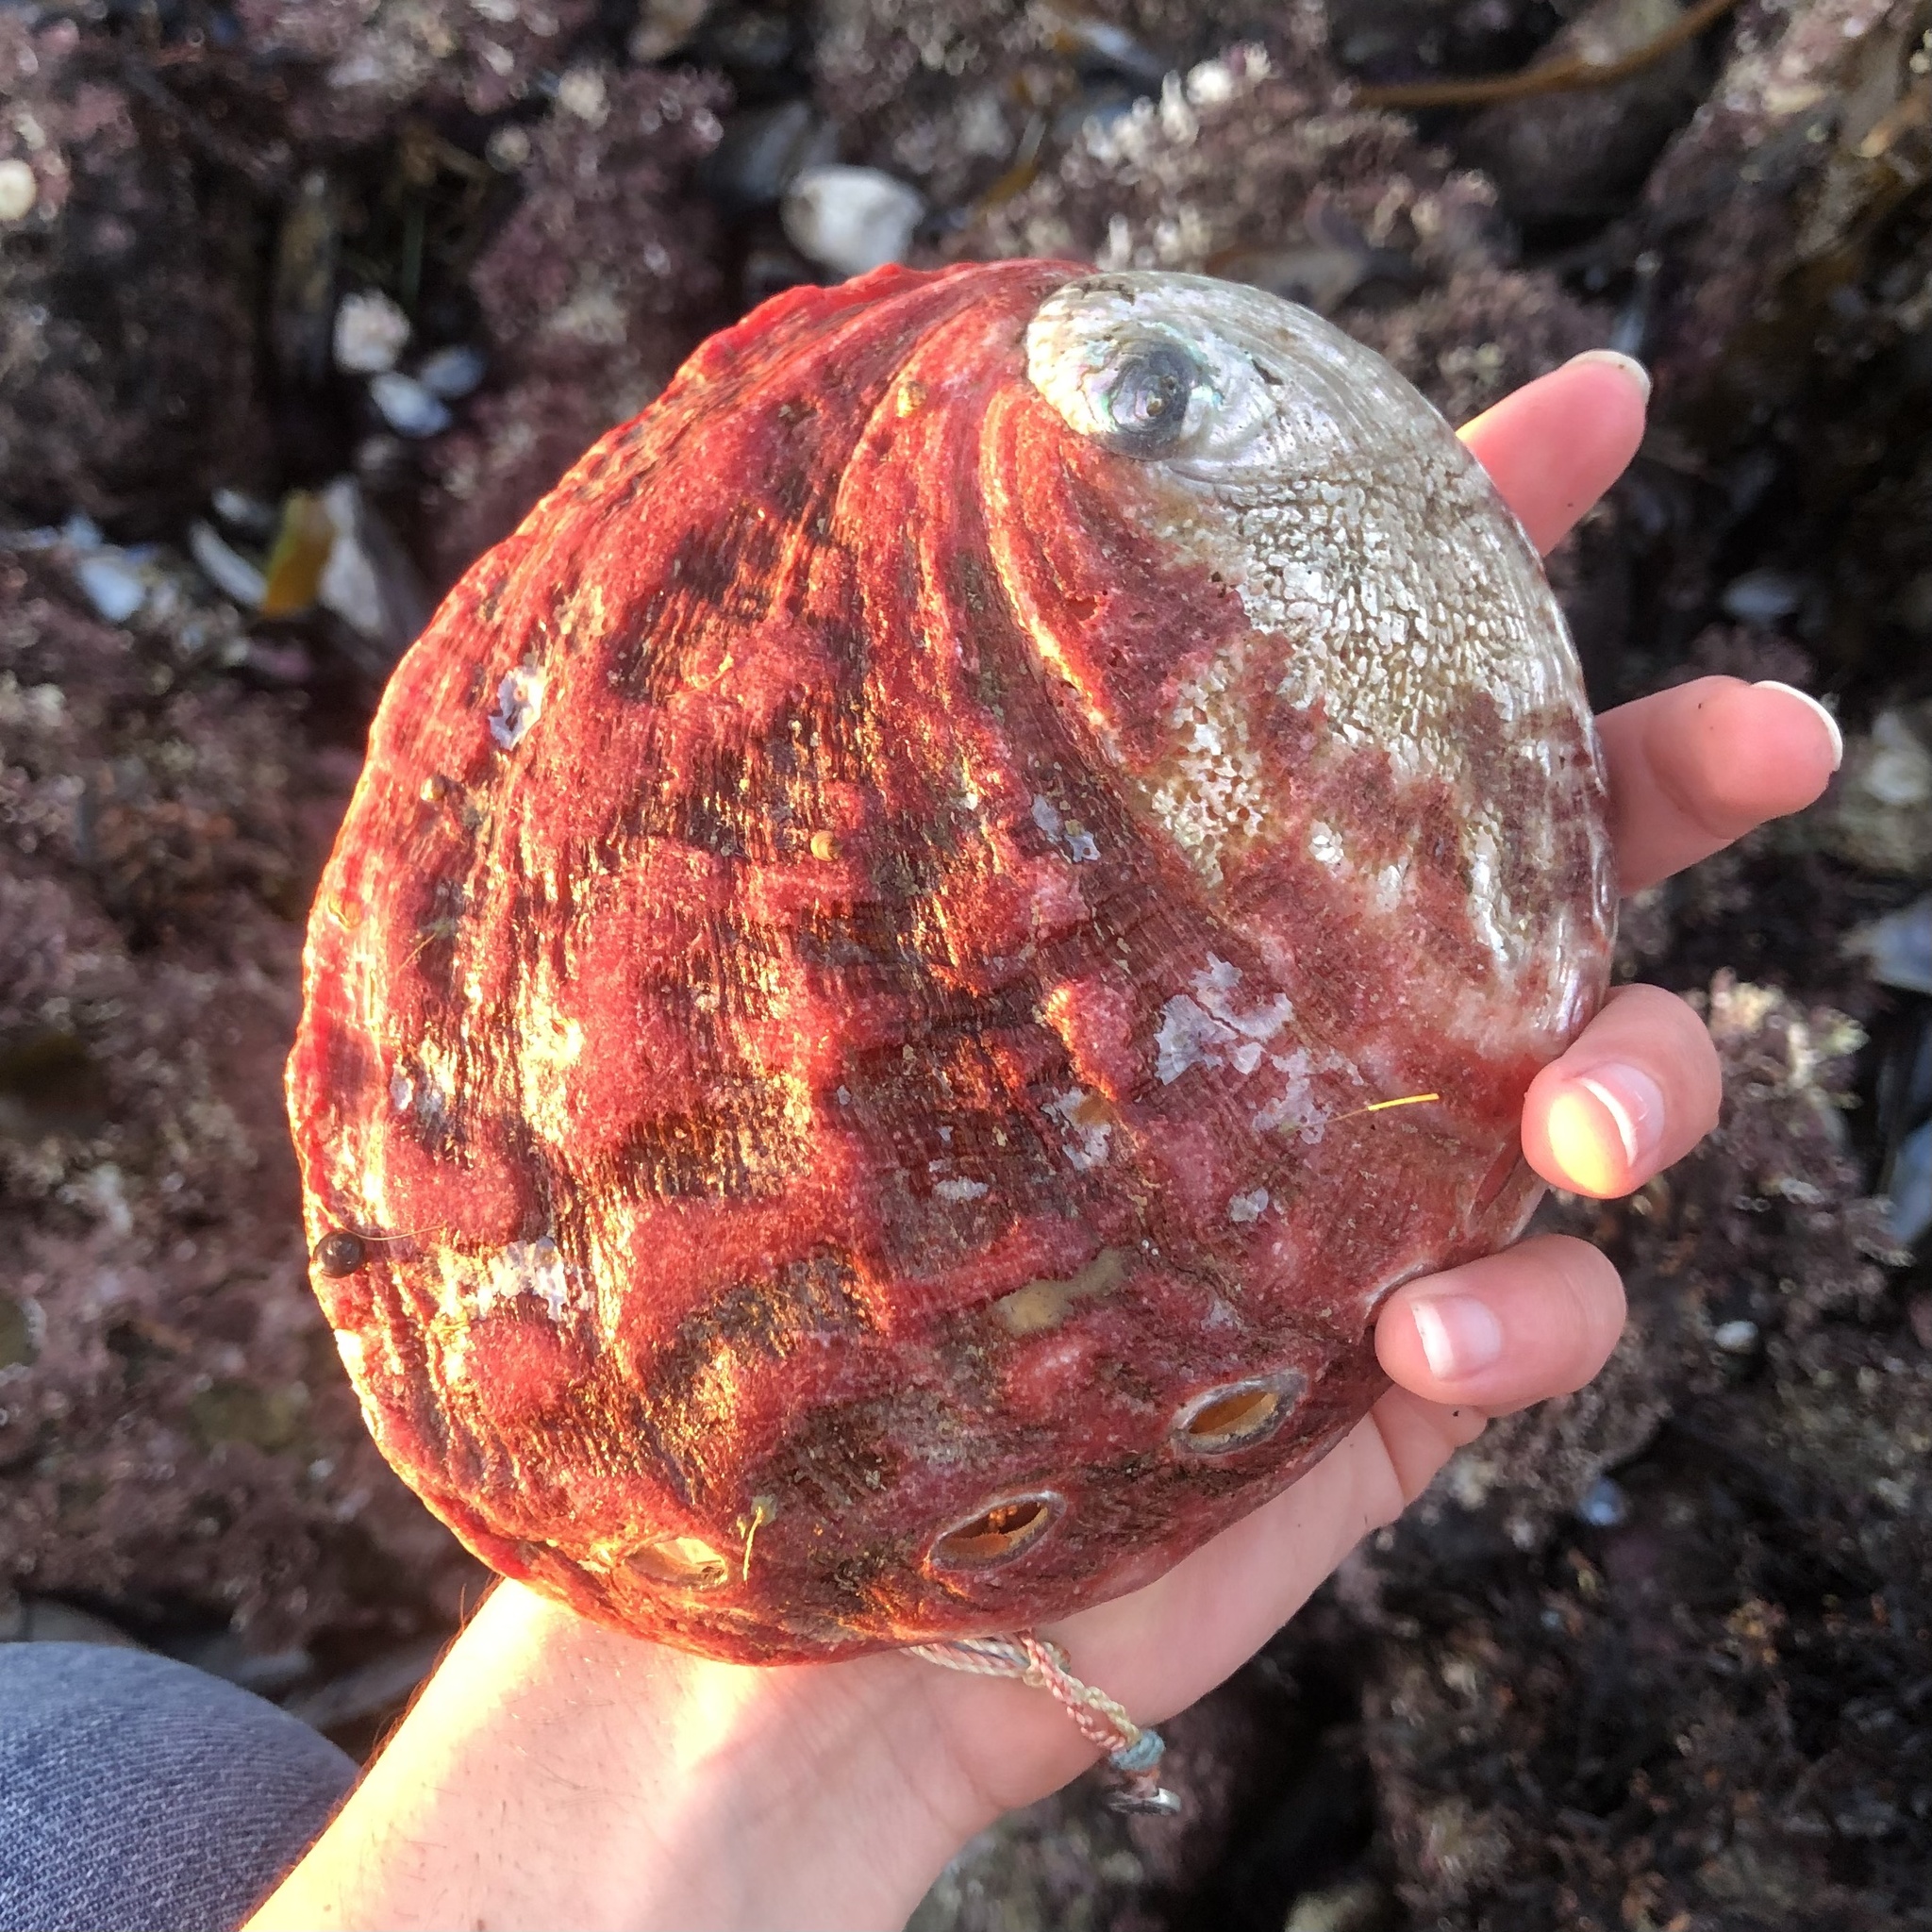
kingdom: Animalia
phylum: Mollusca
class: Gastropoda
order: Lepetellida
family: Haliotidae
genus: Haliotis
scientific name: Haliotis rufescens
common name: Red abalone
